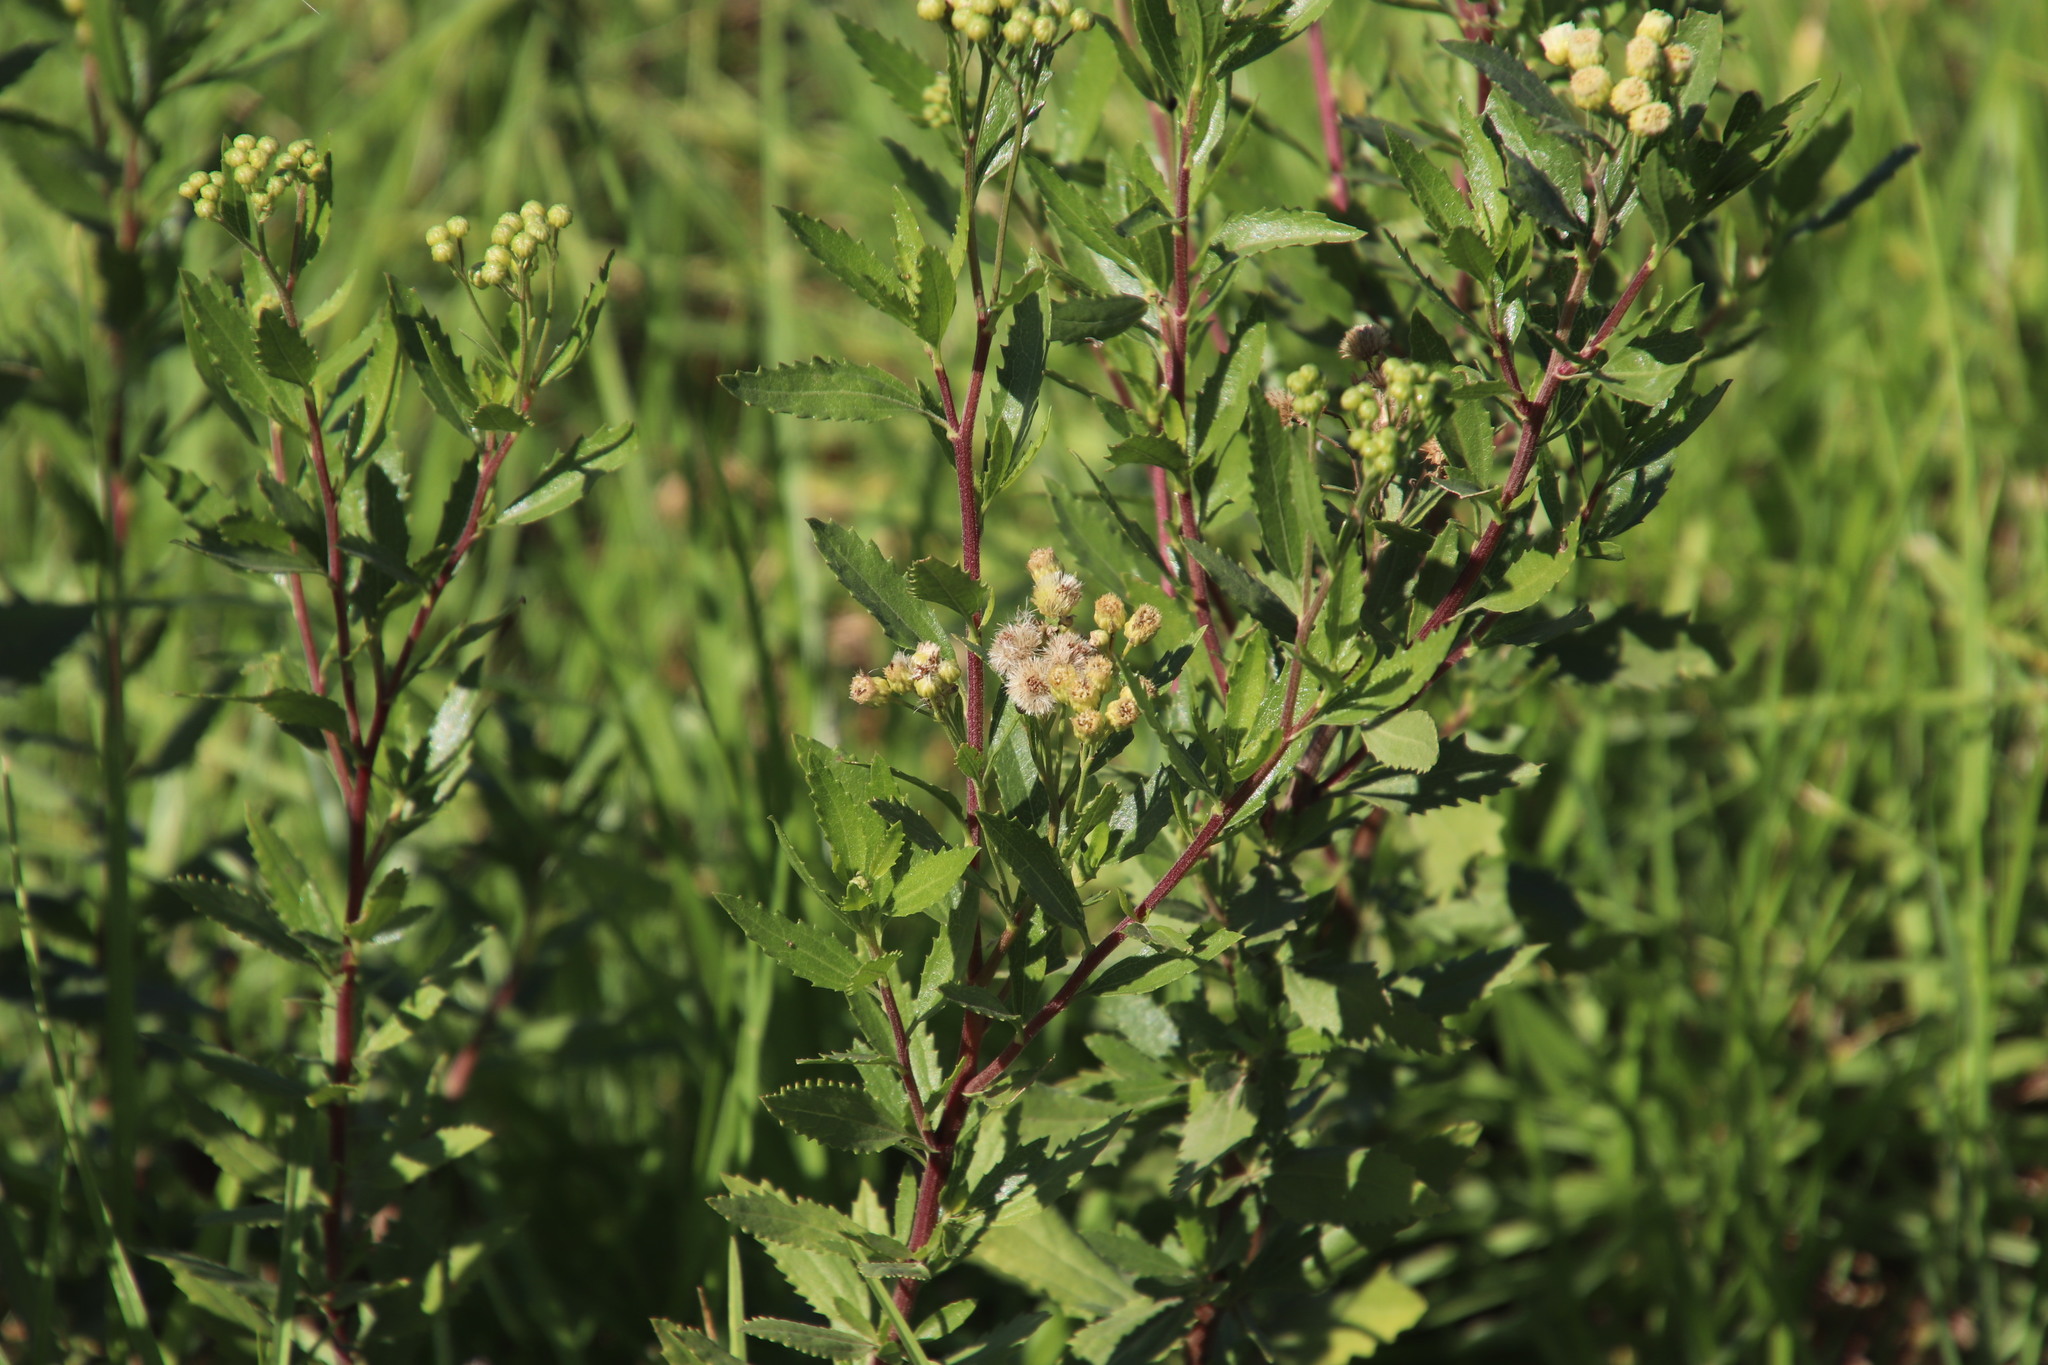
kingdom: Plantae
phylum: Tracheophyta
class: Magnoliopsida
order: Asterales
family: Asteraceae
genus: Nidorella
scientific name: Nidorella ivifolia
